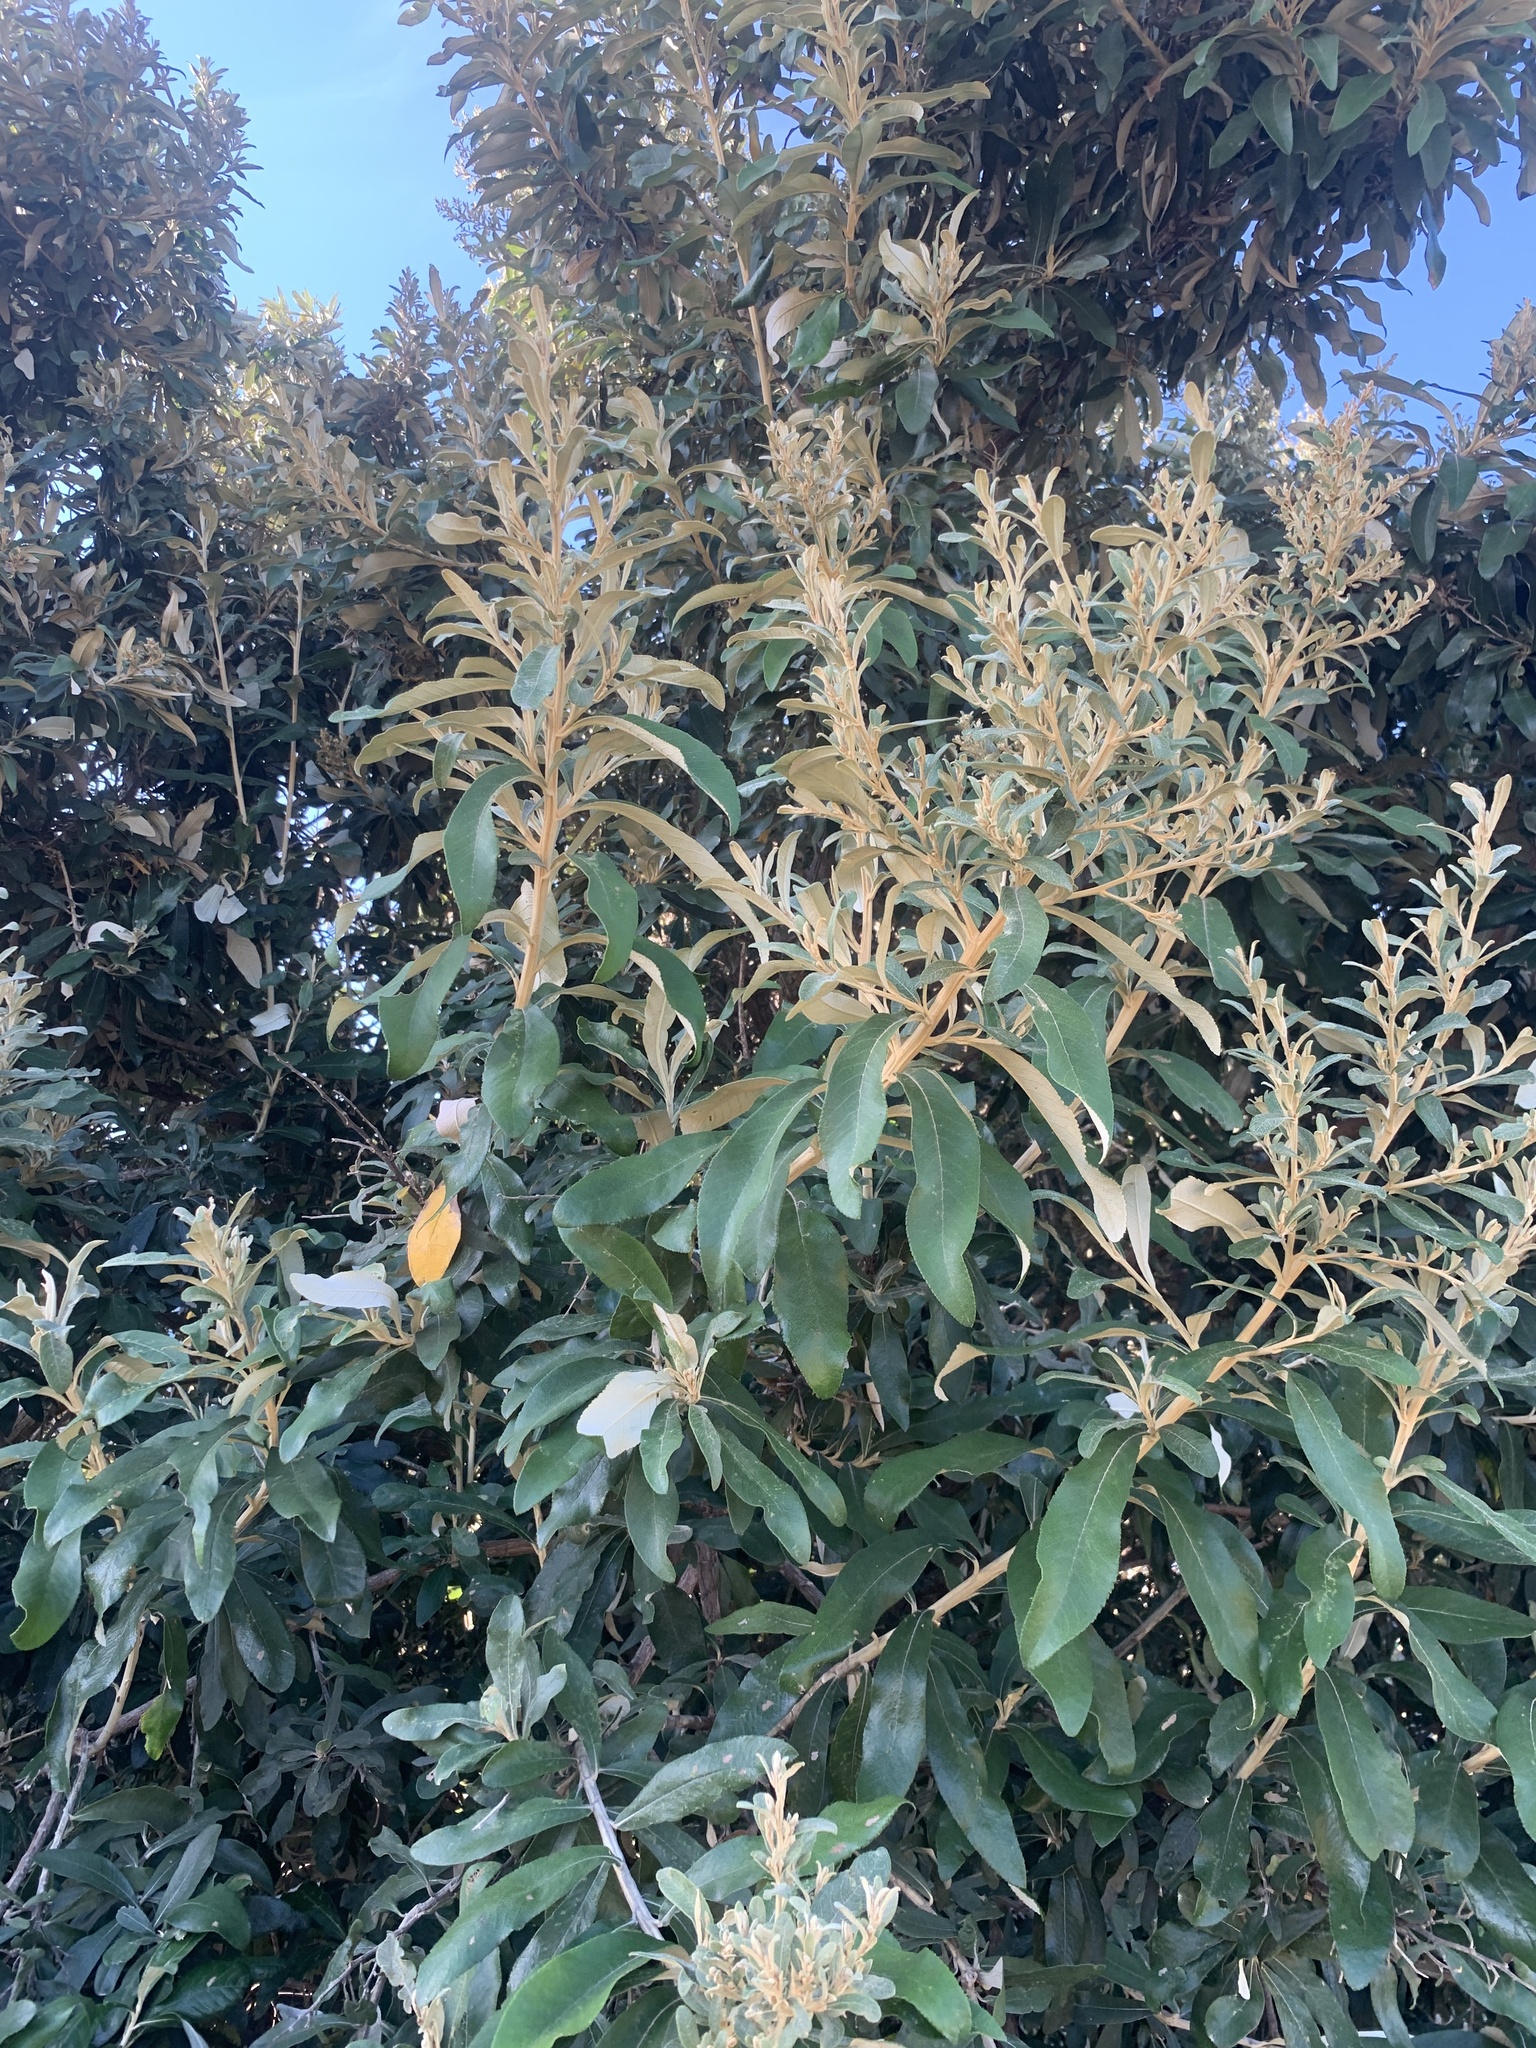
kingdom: Plantae
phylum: Tracheophyta
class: Magnoliopsida
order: Asterales
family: Asteraceae
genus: Tarchonanthus
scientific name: Tarchonanthus littoralis
